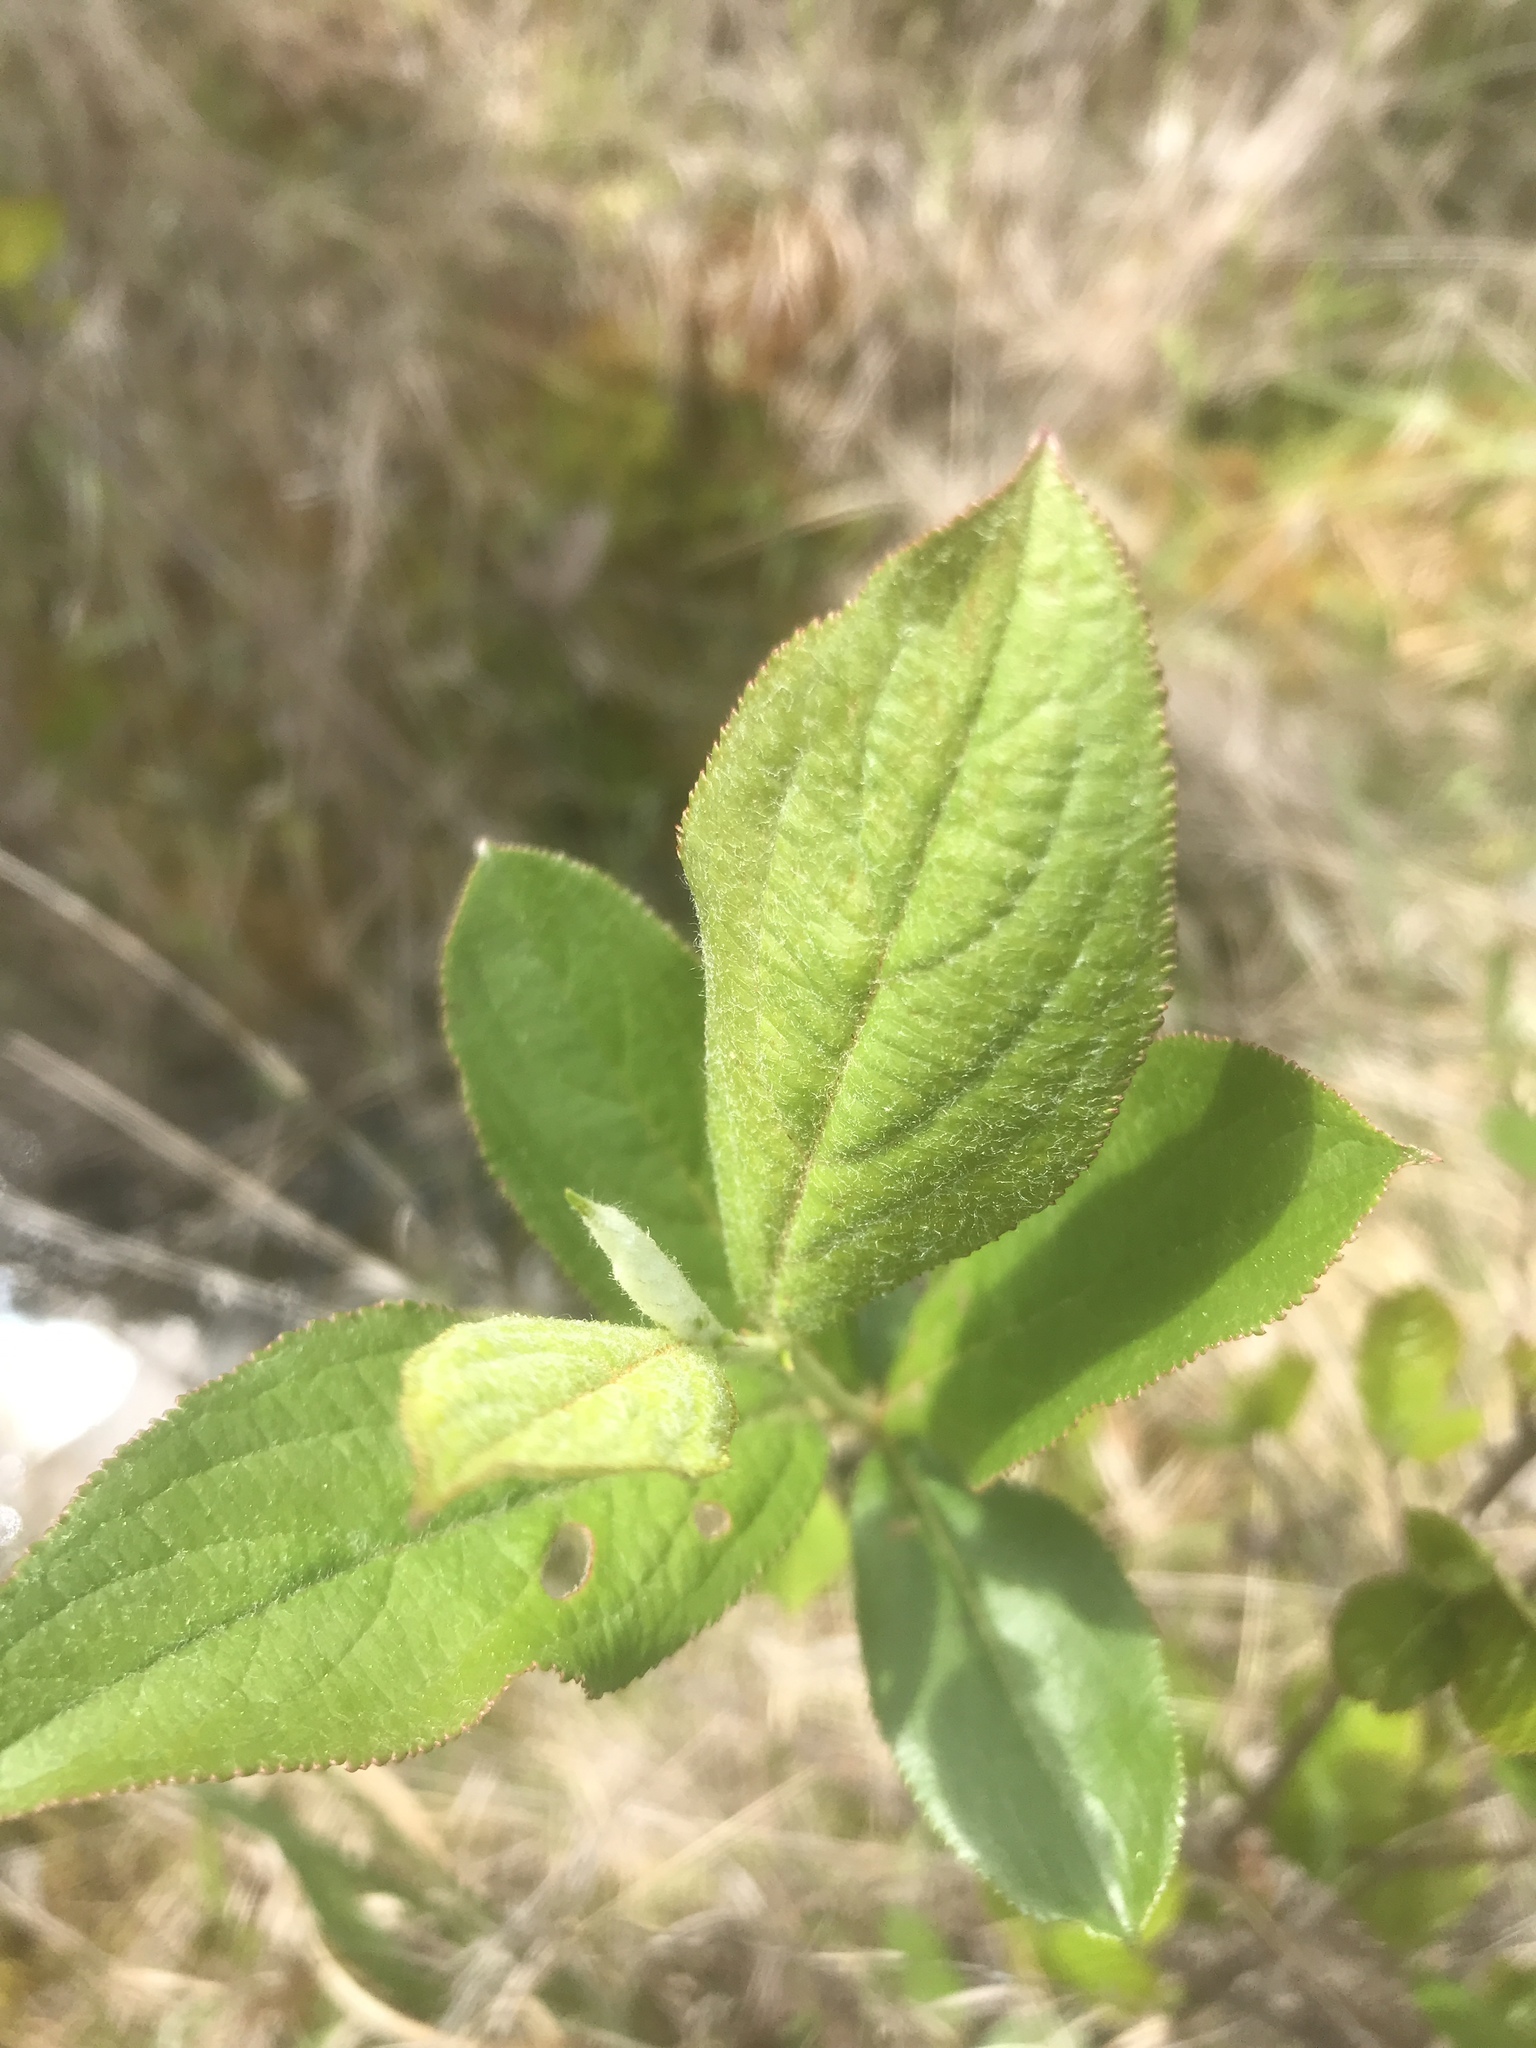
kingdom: Plantae
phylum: Tracheophyta
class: Magnoliopsida
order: Rosales
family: Rosaceae
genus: Aronia
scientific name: Aronia arbutifolia
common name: Red chokeberry
